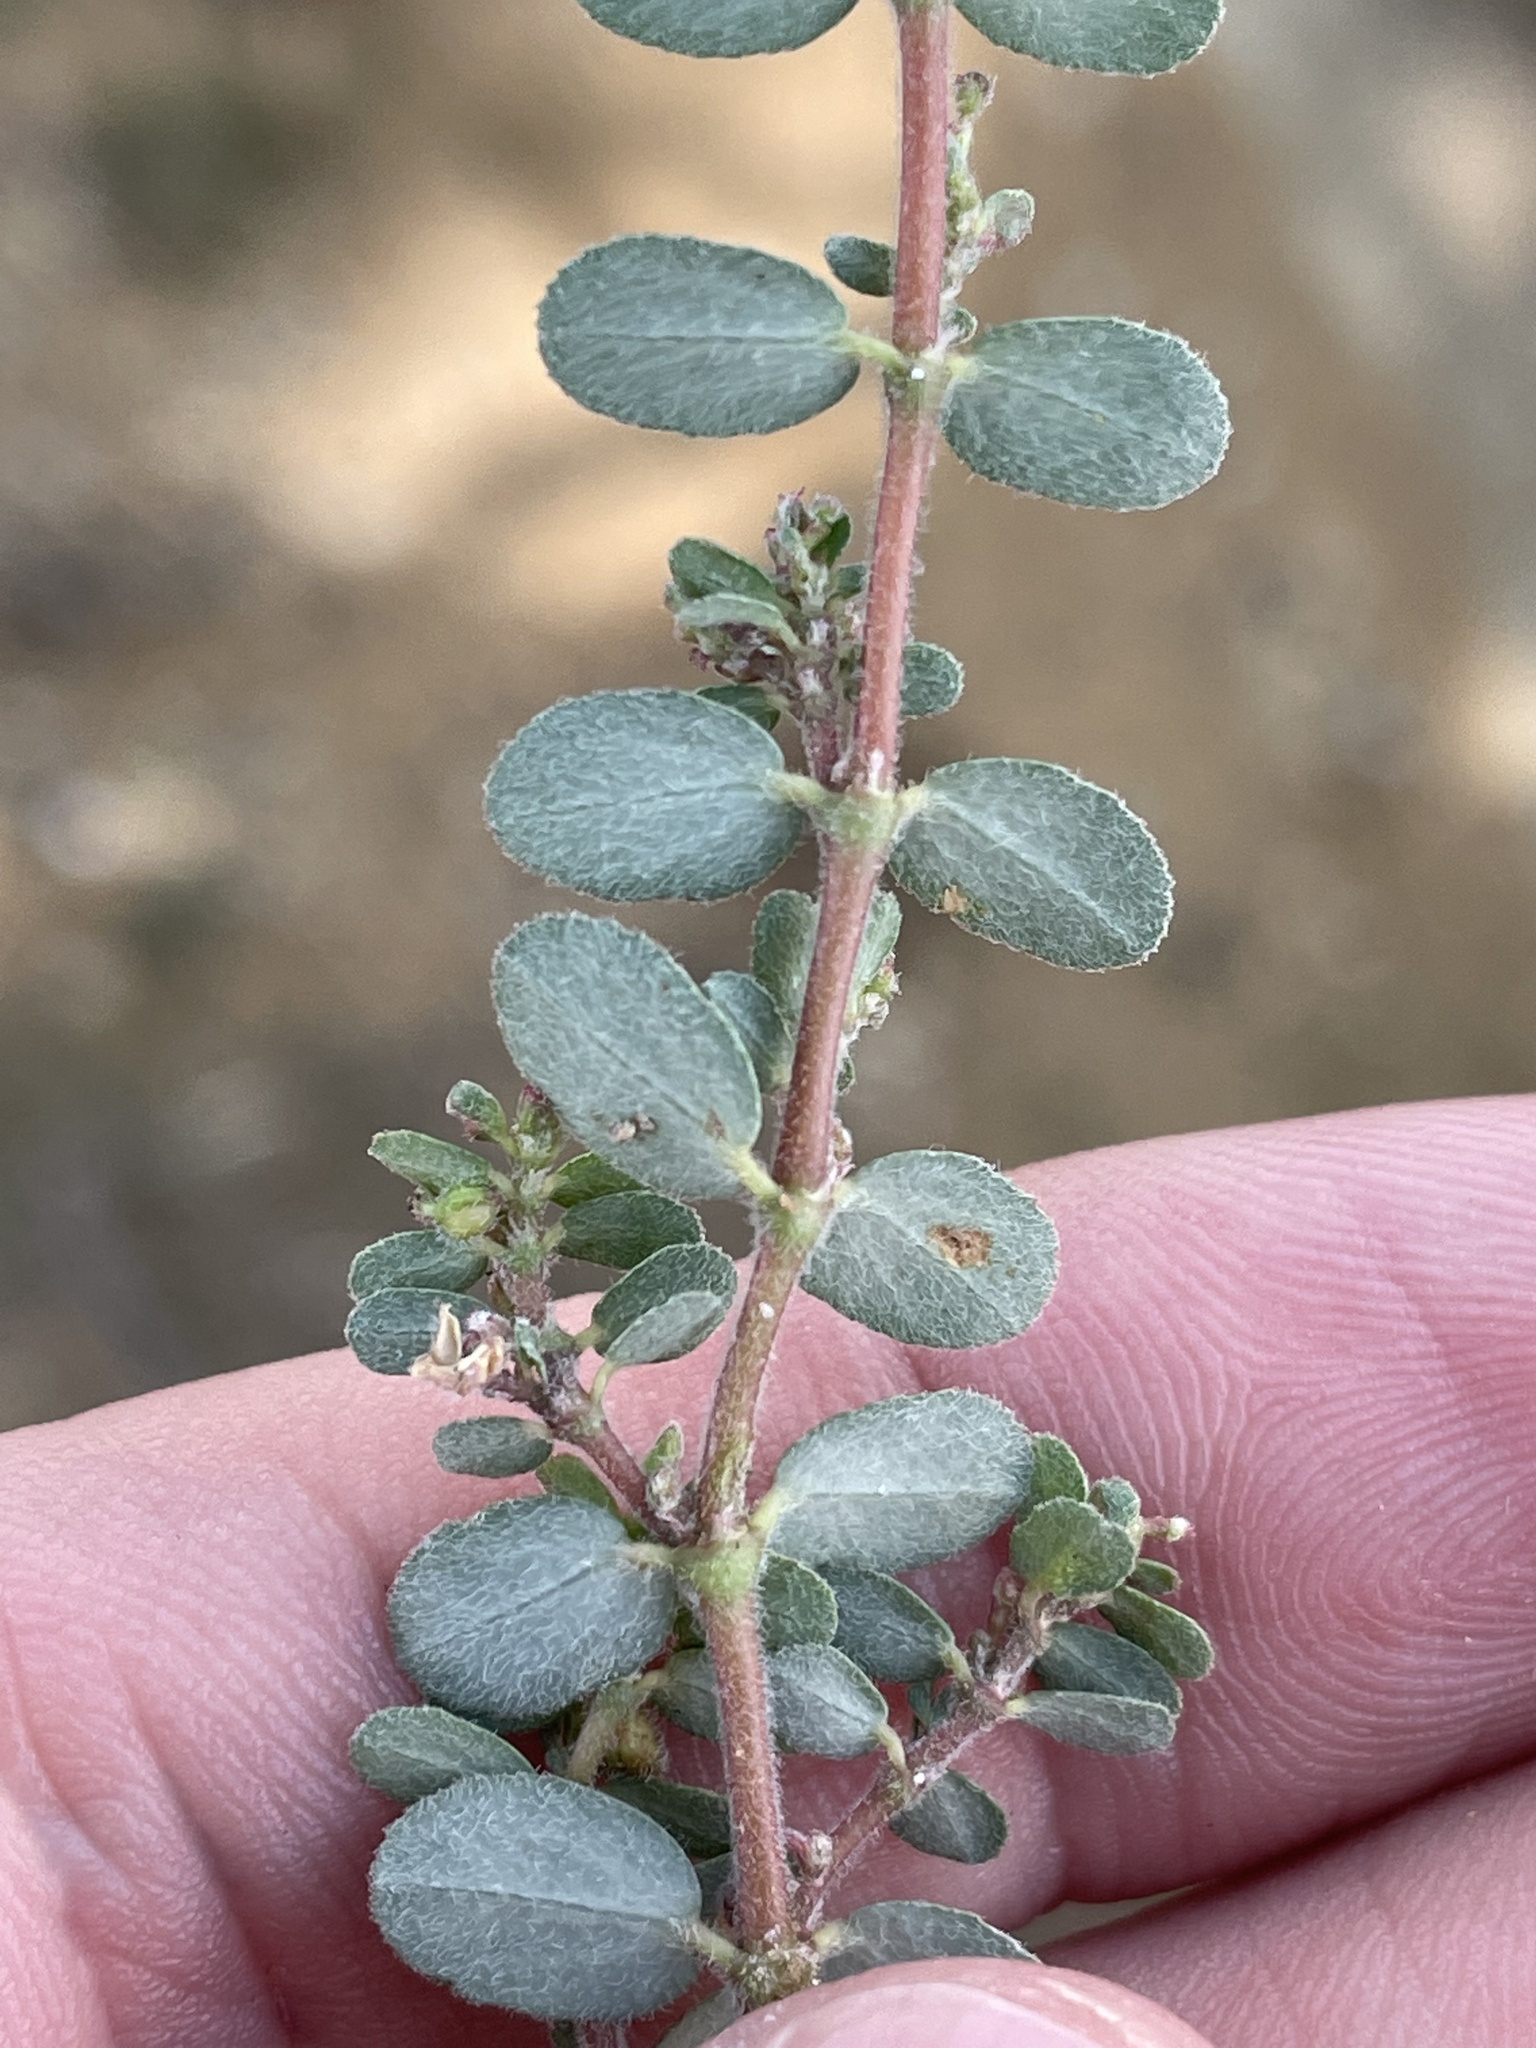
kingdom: Plantae
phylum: Tracheophyta
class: Magnoliopsida
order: Malpighiales
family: Euphorbiaceae
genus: Euphorbia
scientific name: Euphorbia prostrata
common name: Prostrate sandmat
